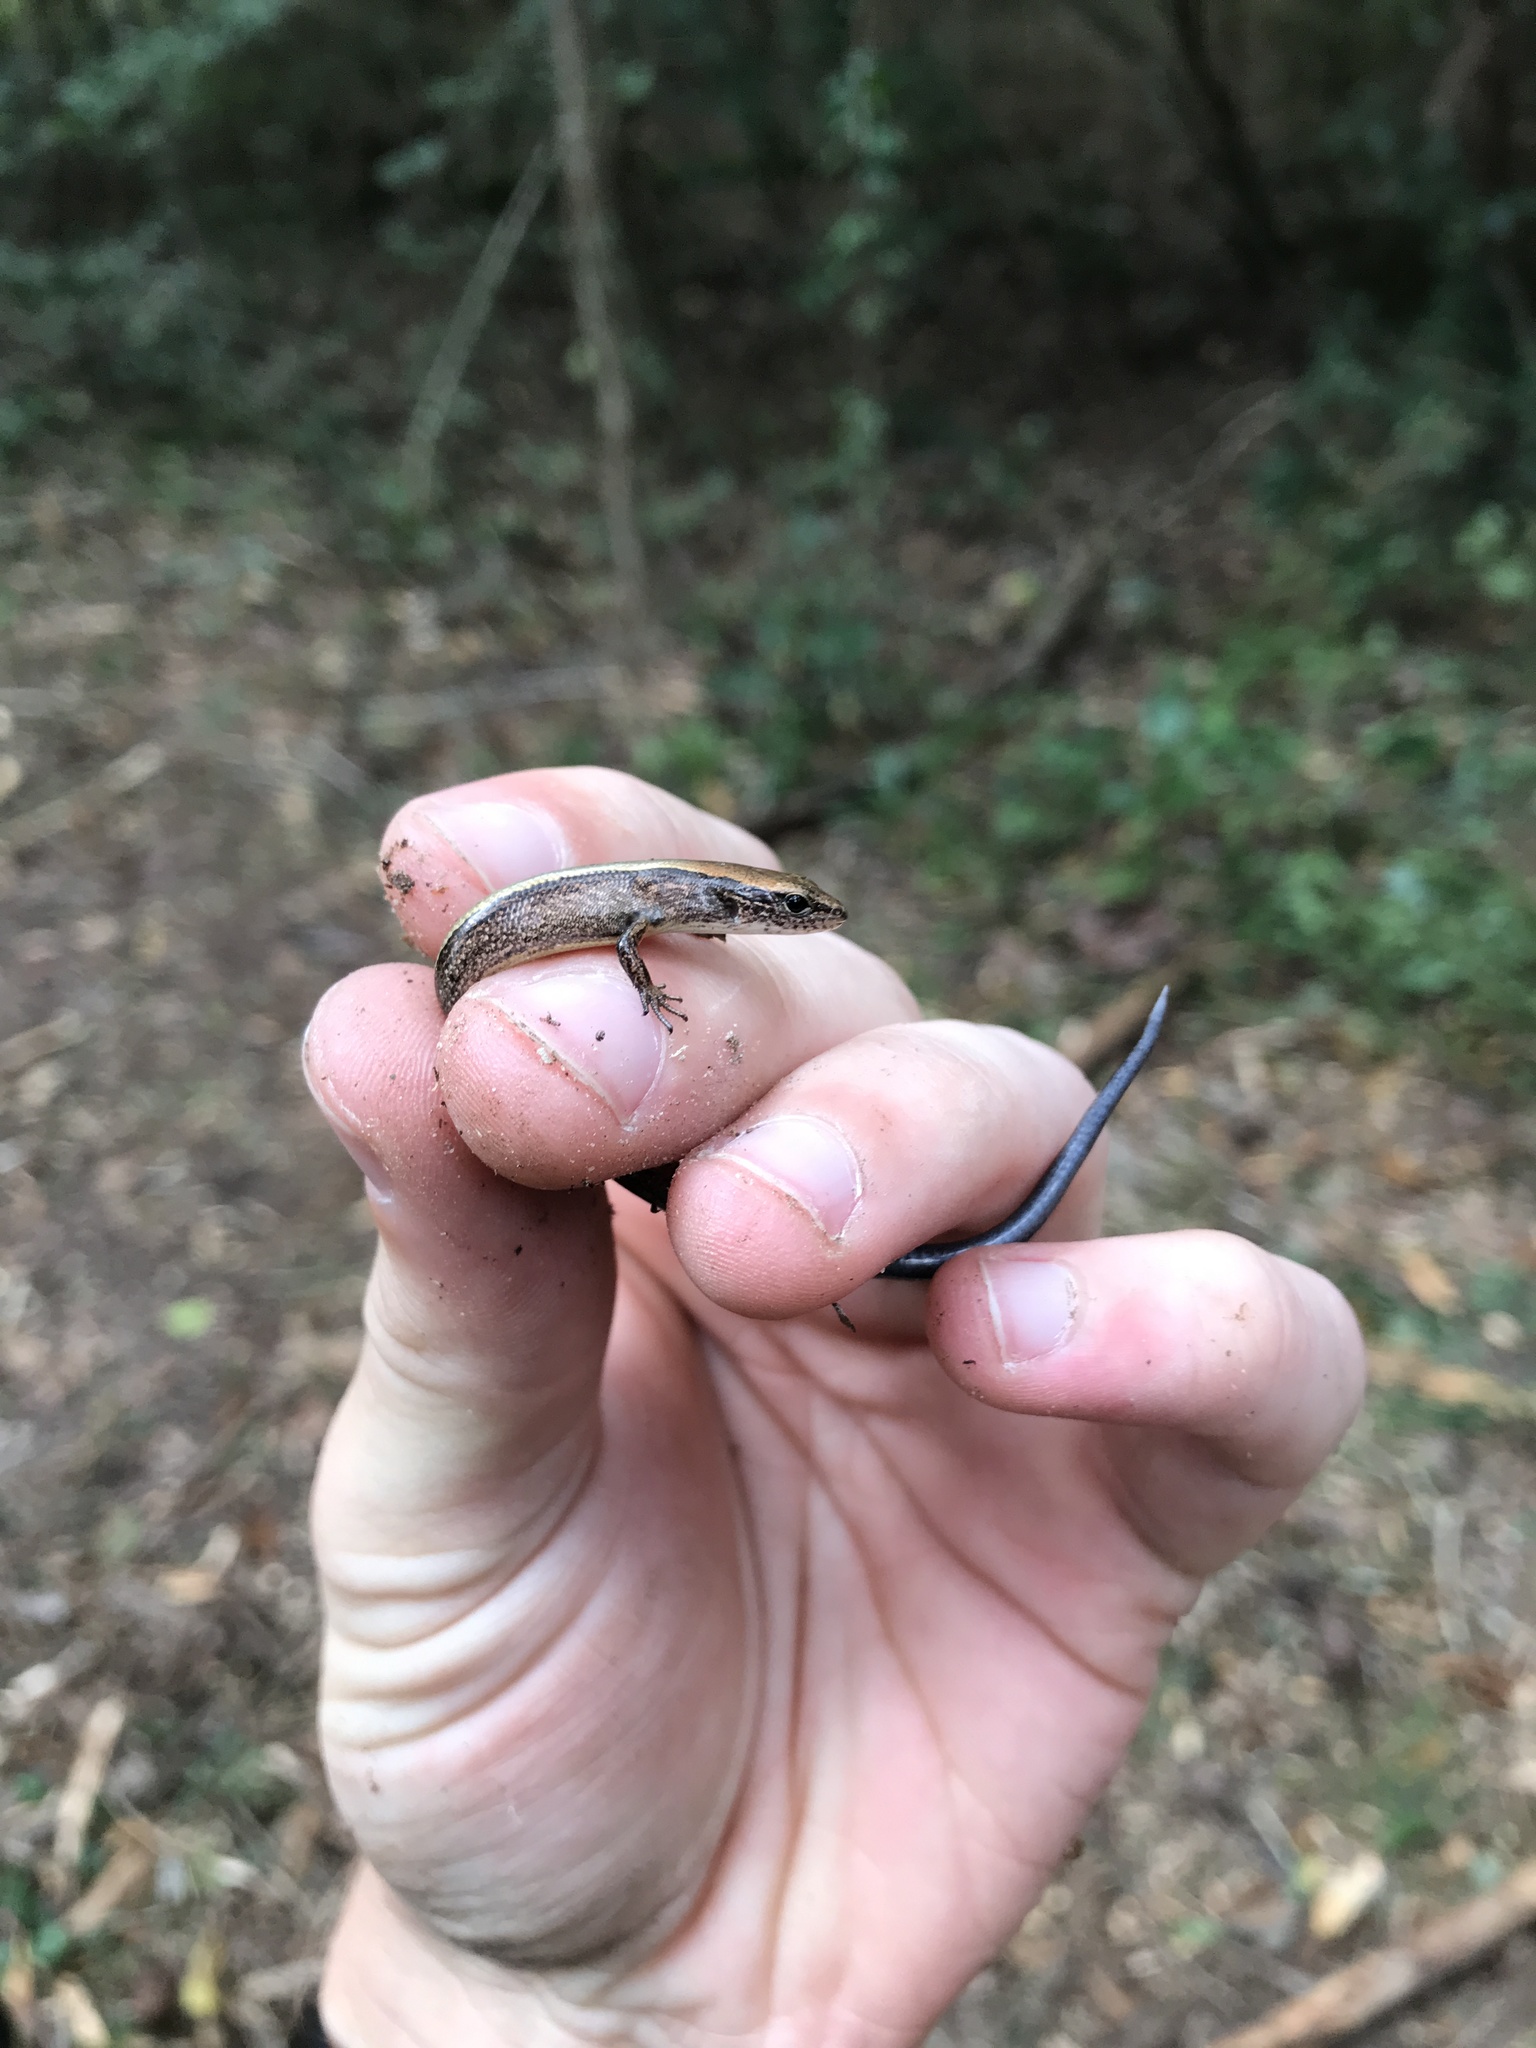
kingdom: Animalia
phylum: Chordata
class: Squamata
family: Scincidae
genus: Scincella
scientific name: Scincella lateralis
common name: Ground skink
